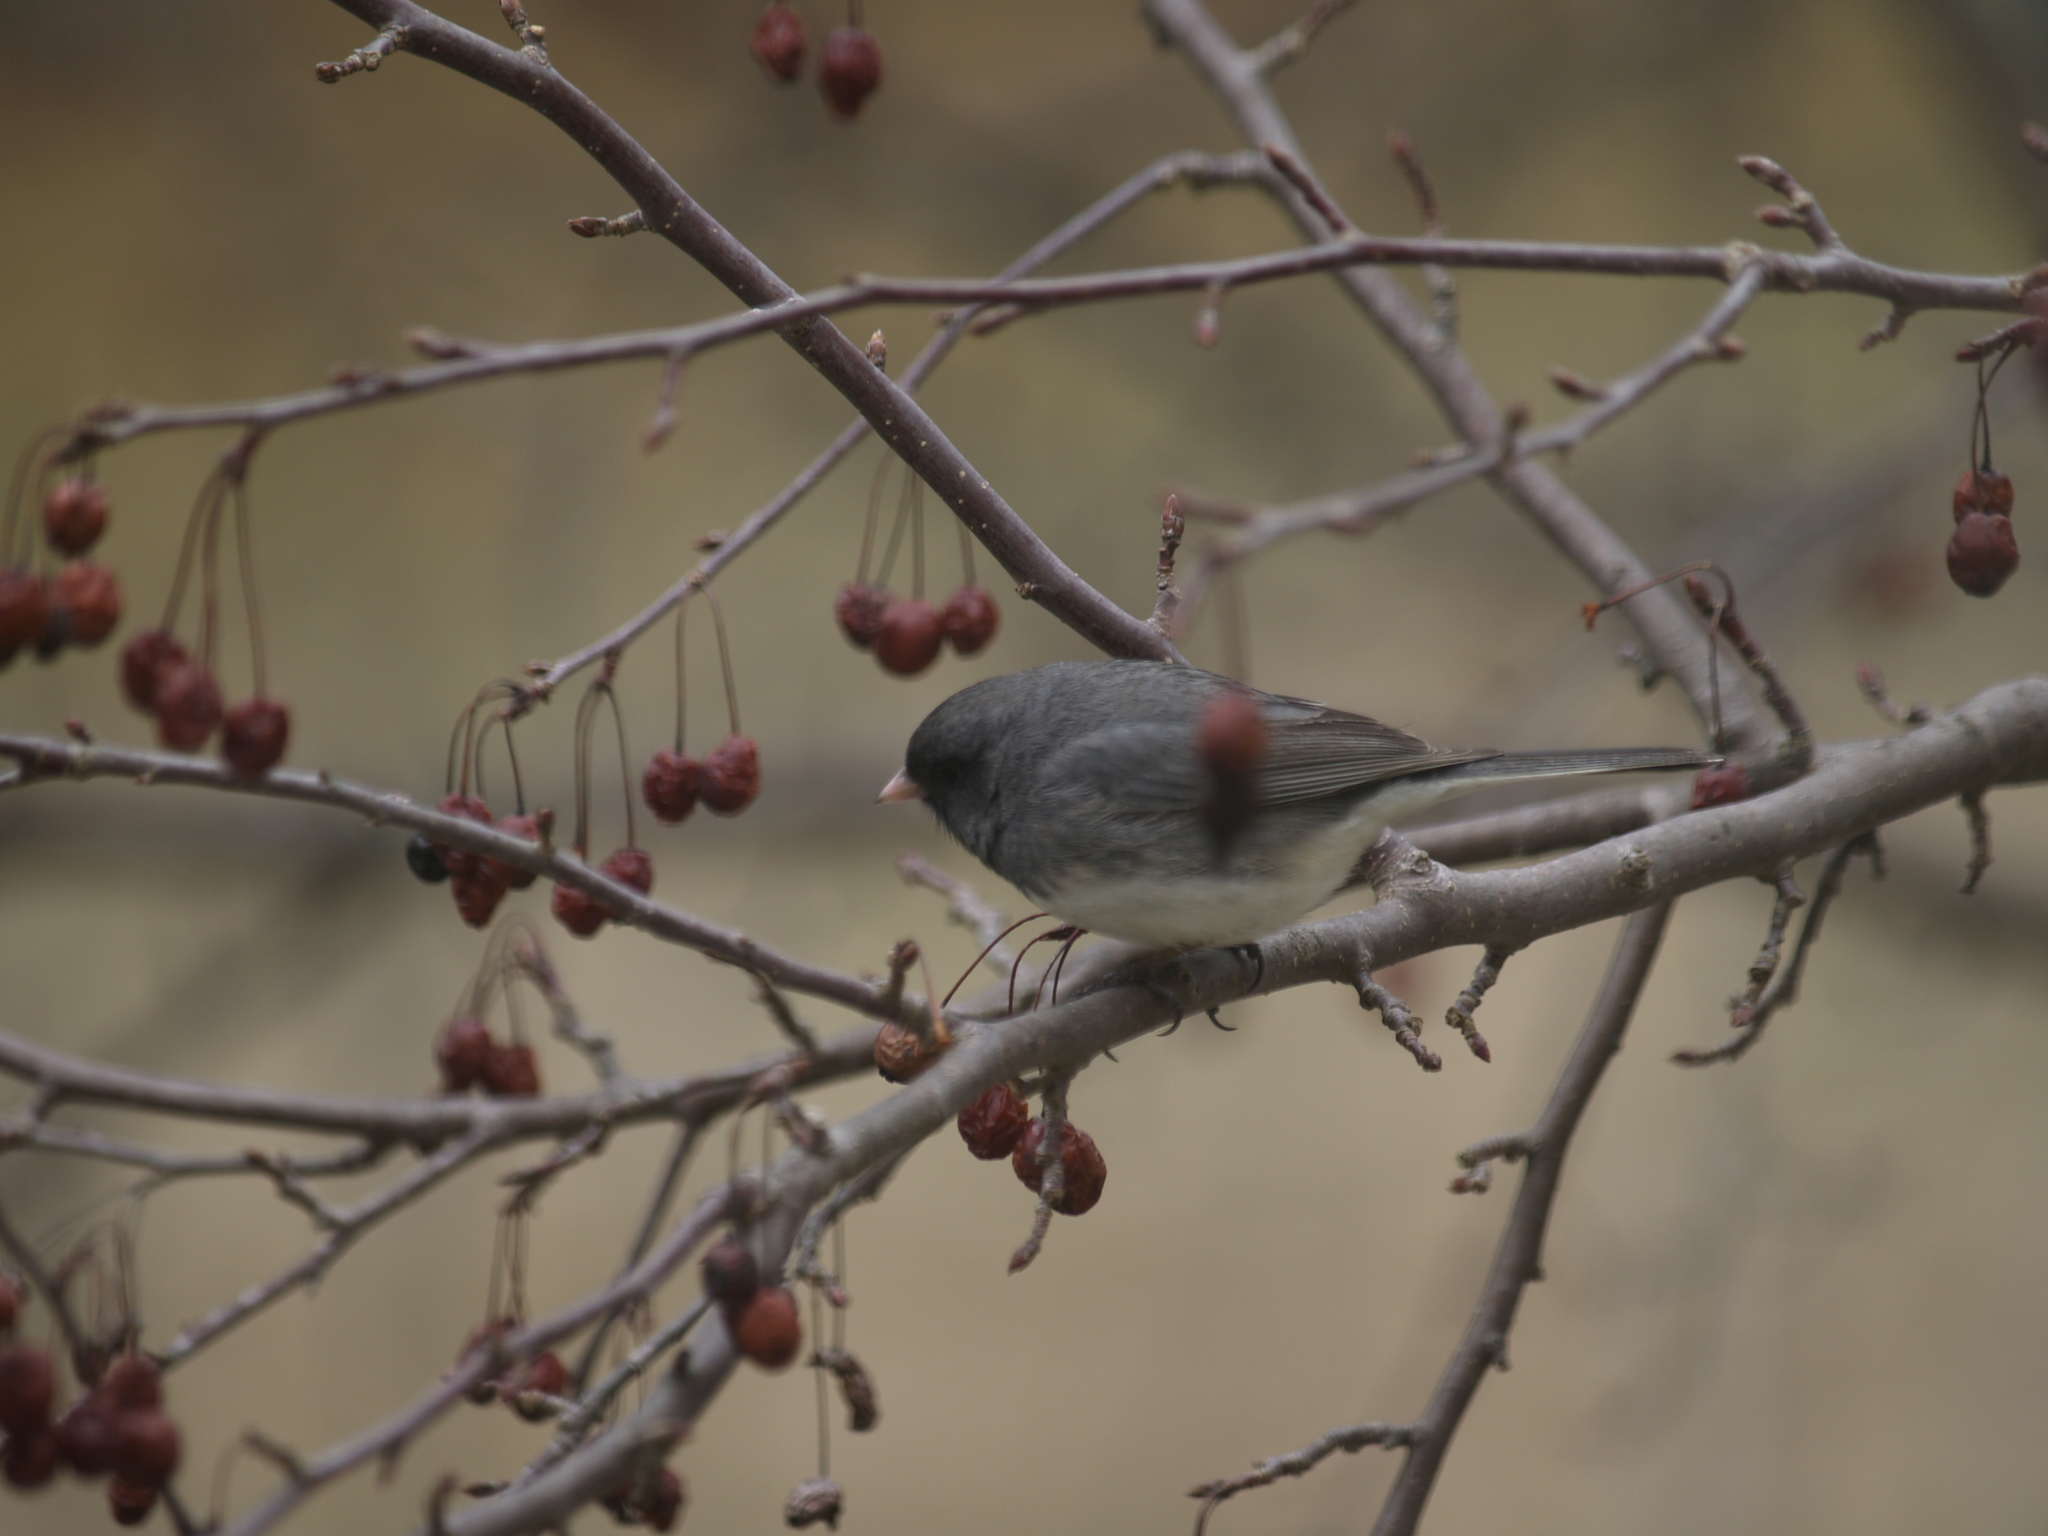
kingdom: Animalia
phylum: Chordata
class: Aves
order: Passeriformes
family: Passerellidae
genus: Junco
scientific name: Junco hyemalis
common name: Dark-eyed junco
